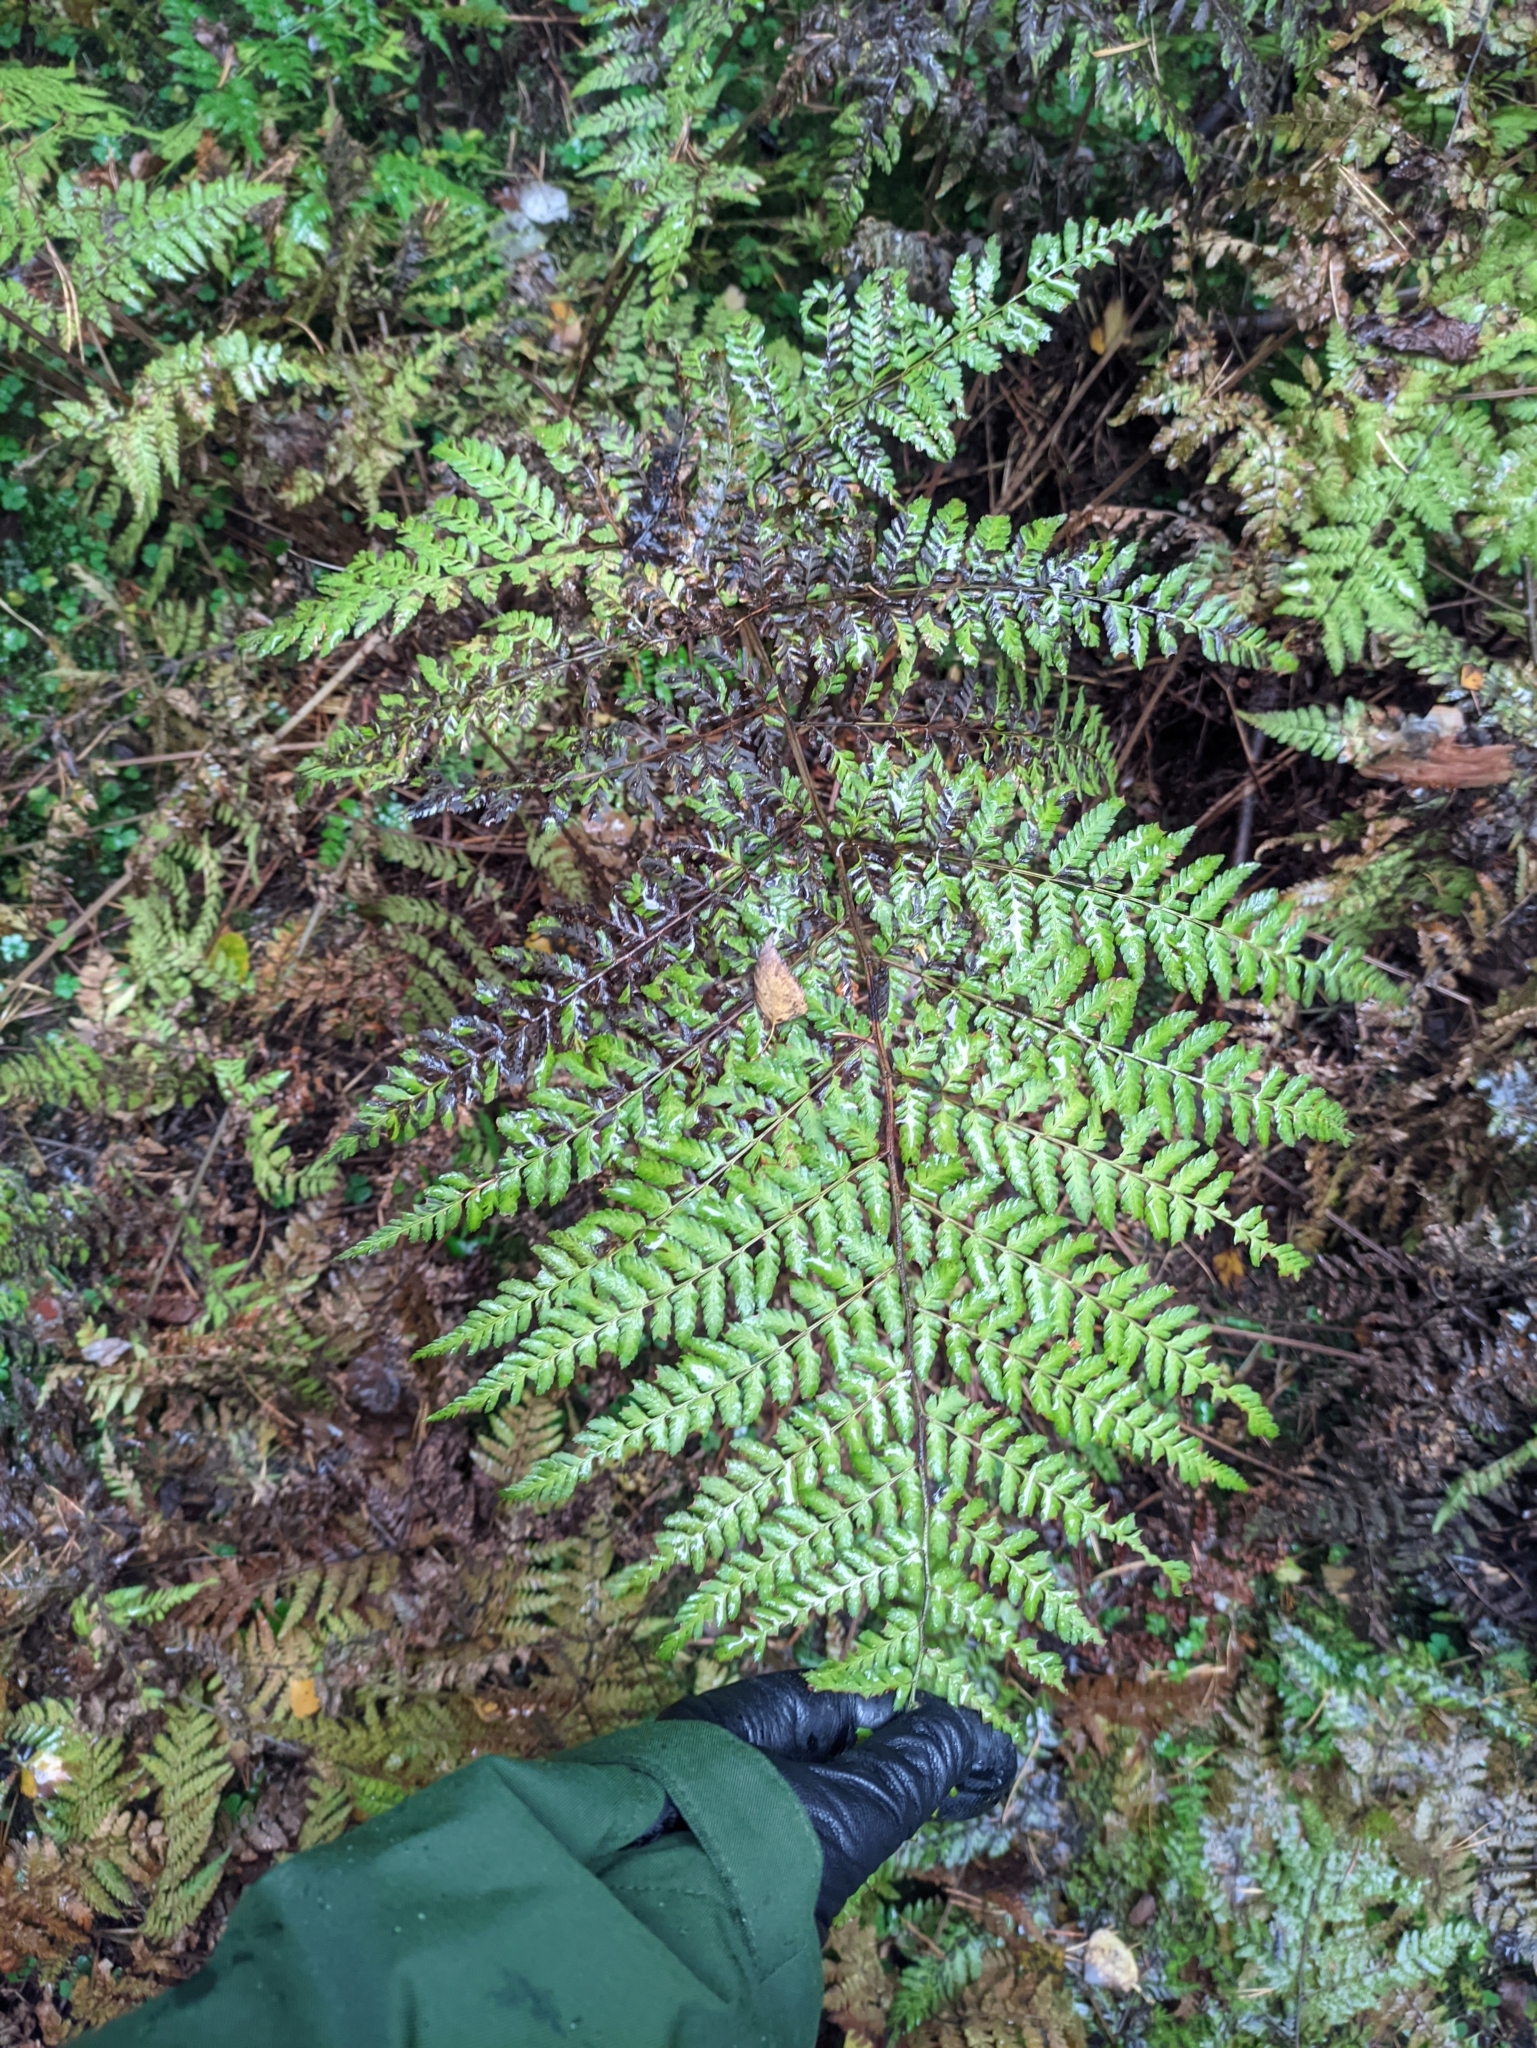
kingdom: Plantae
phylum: Tracheophyta
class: Polypodiopsida
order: Polypodiales
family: Dryopteridaceae
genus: Dryopteris
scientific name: Dryopteris expansa
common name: Northern buckler fern
